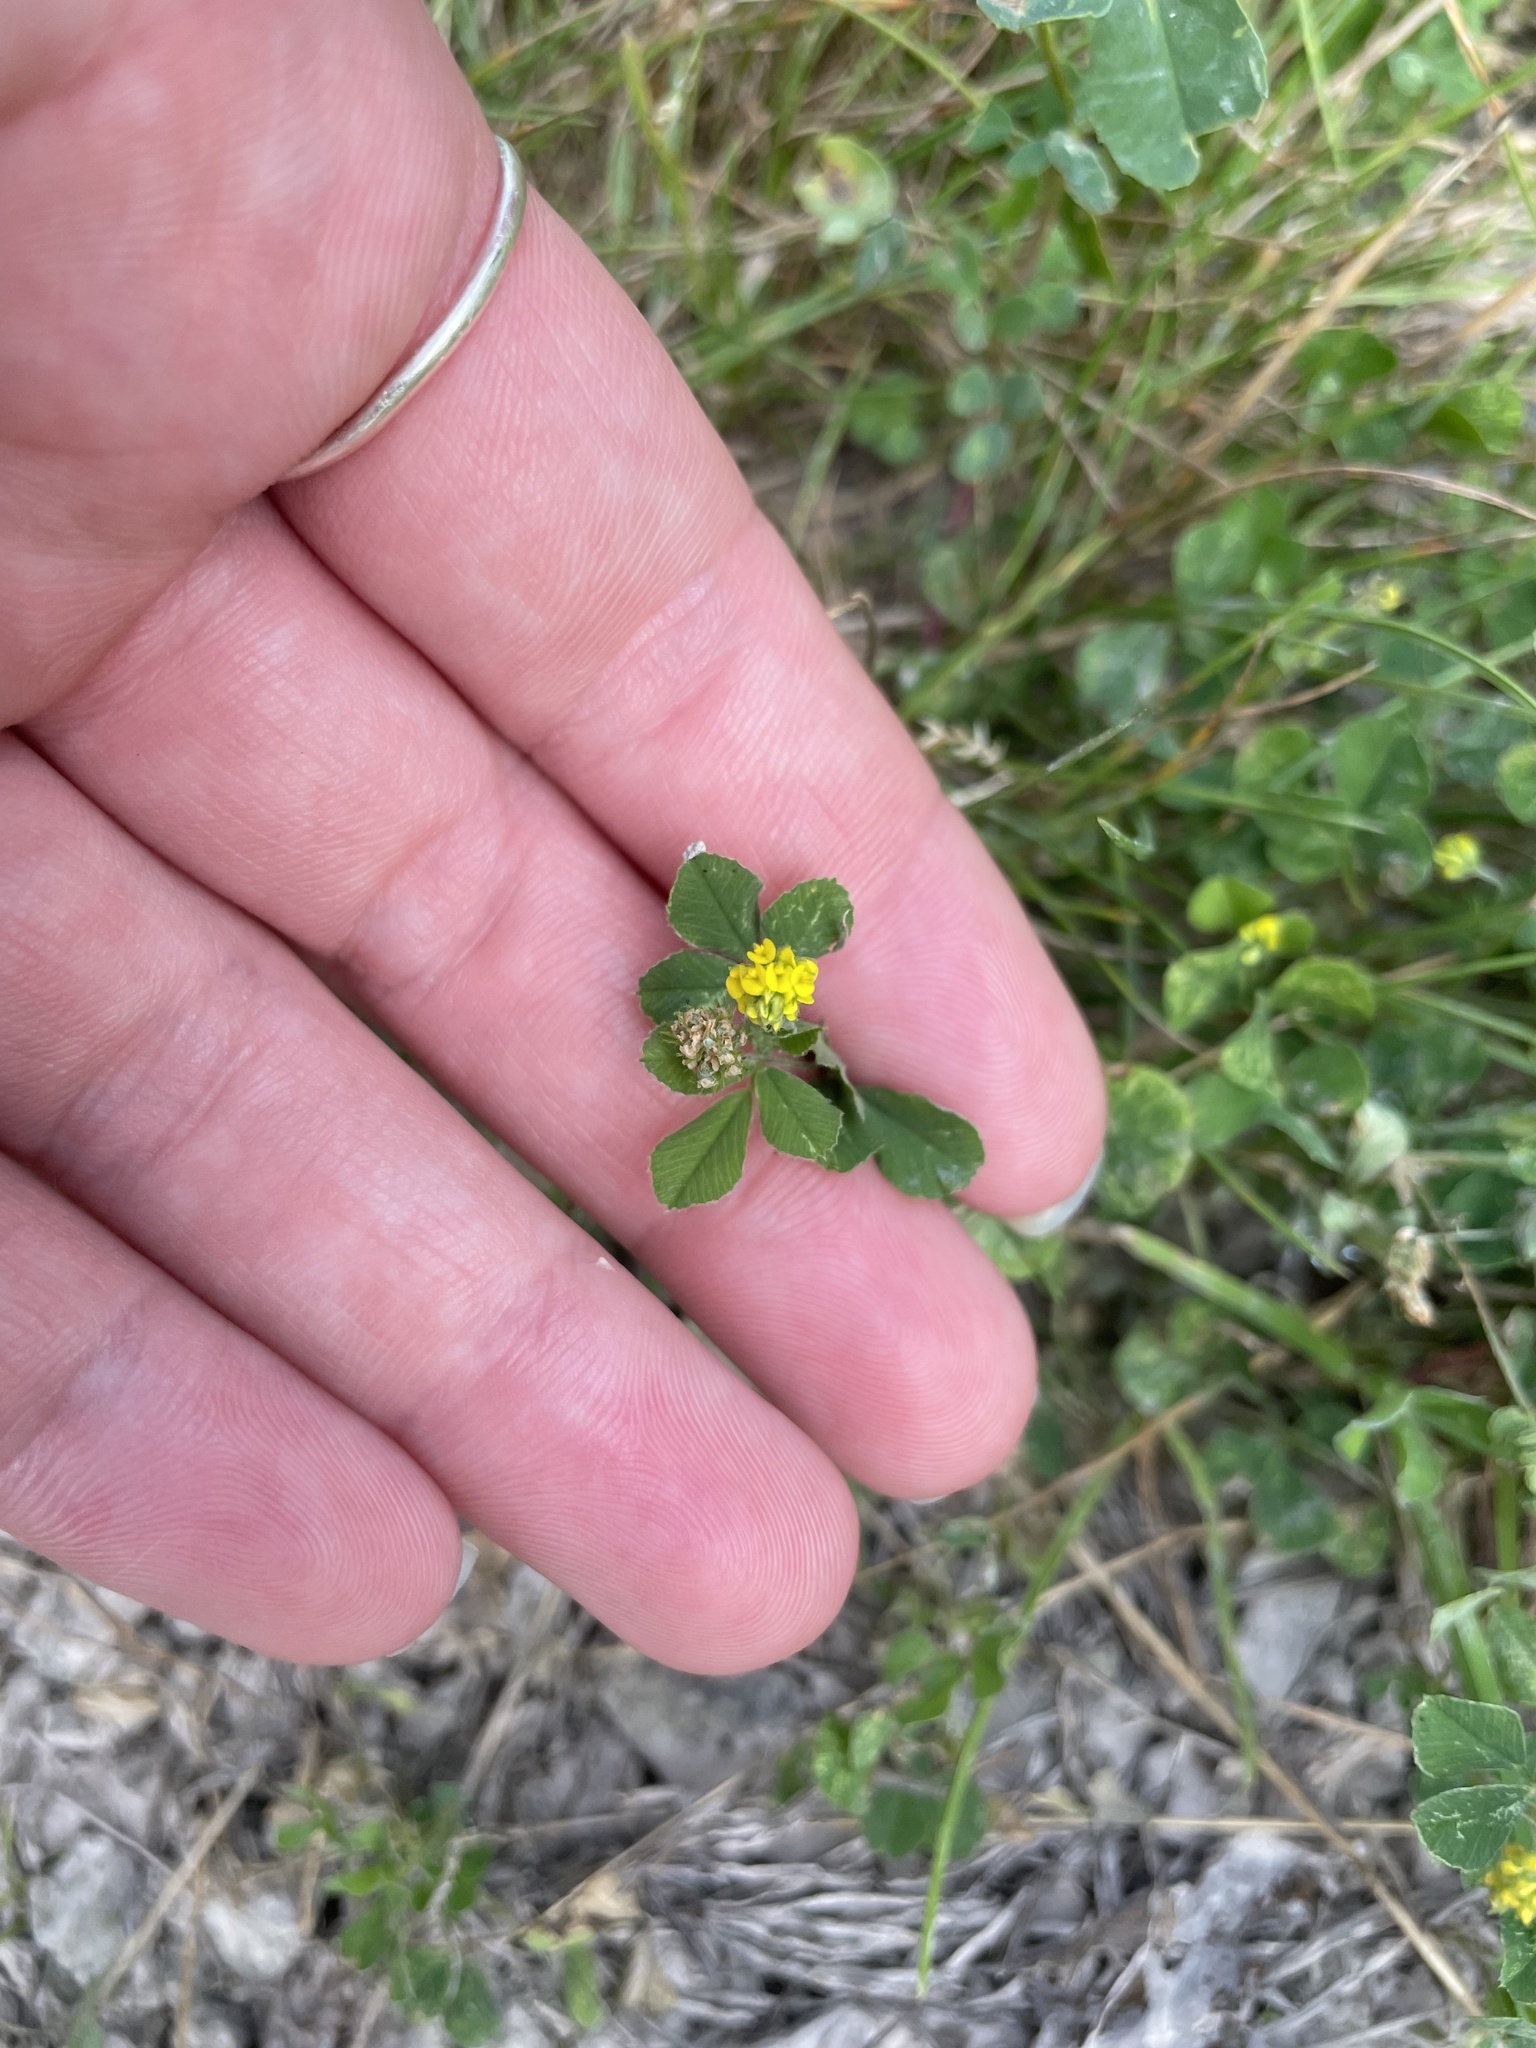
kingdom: Plantae
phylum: Tracheophyta
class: Magnoliopsida
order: Fabales
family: Fabaceae
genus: Medicago
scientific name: Medicago lupulina
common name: Black medick
